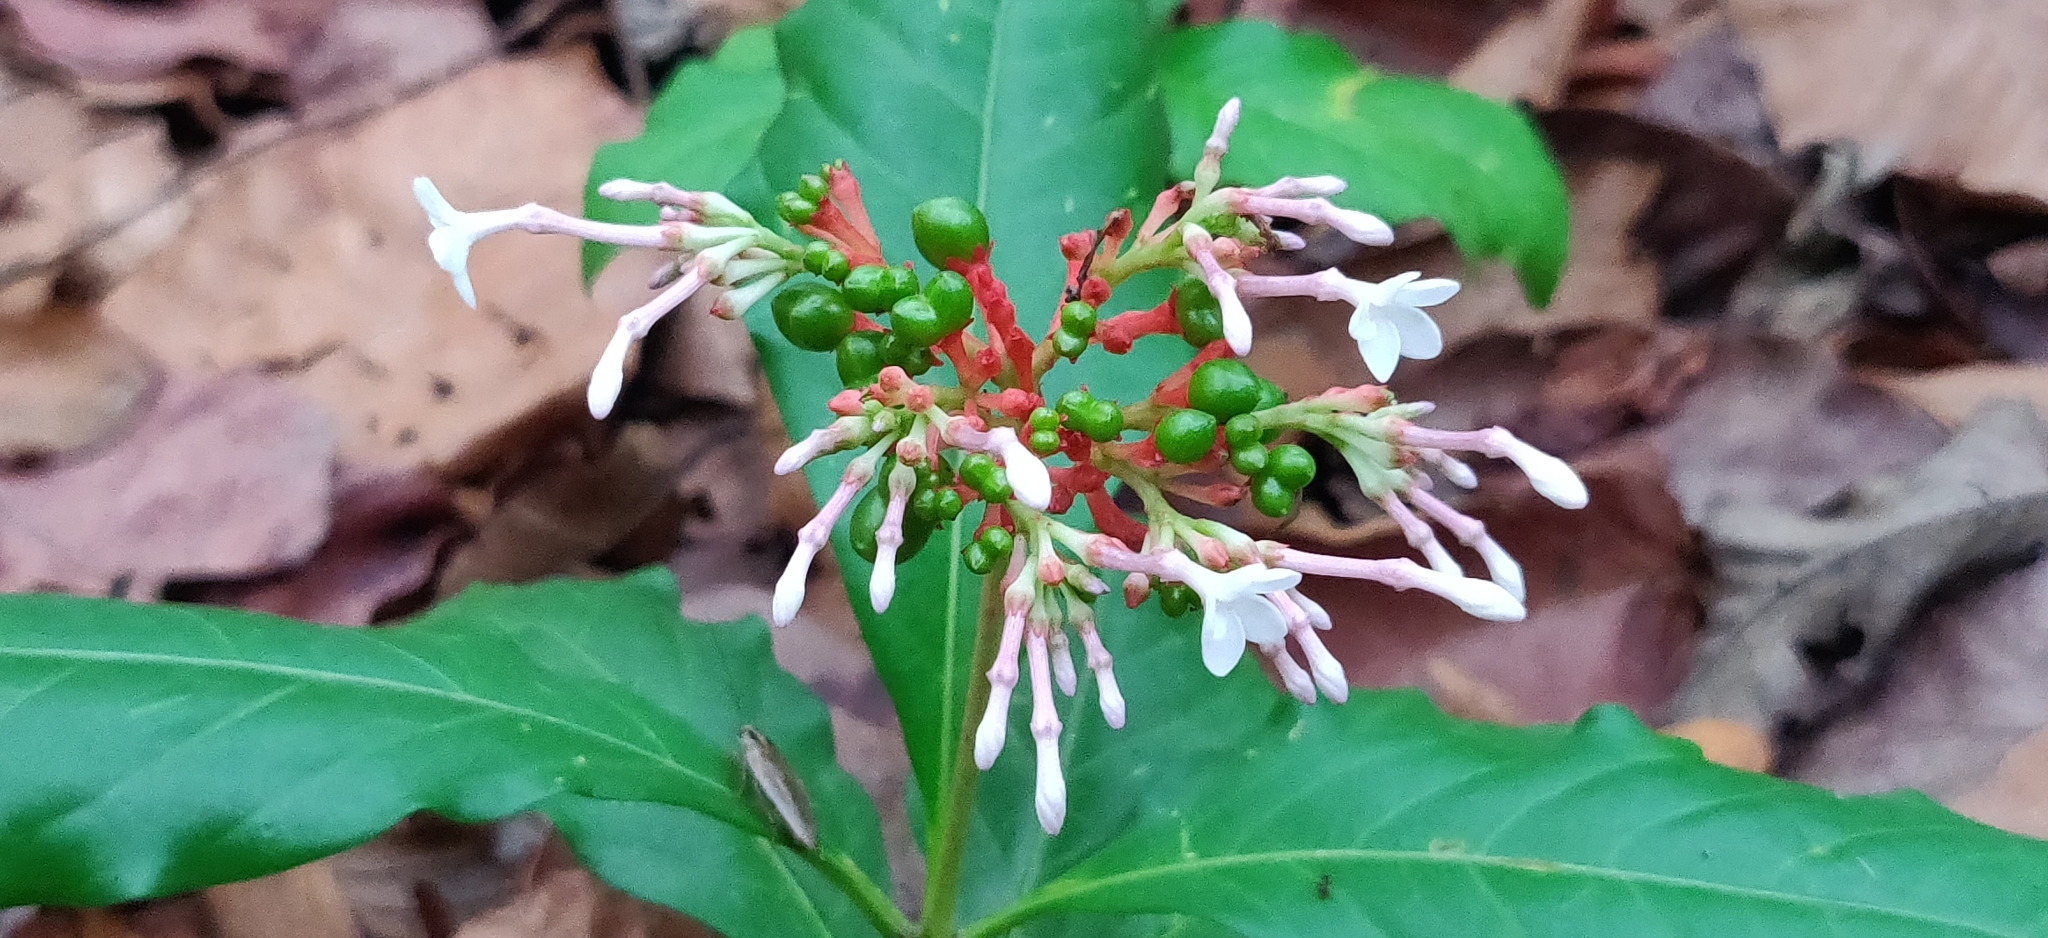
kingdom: Plantae
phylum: Tracheophyta
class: Magnoliopsida
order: Gentianales
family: Apocynaceae
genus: Rauvolfia
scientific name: Rauvolfia serpentina
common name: Ajmaline
